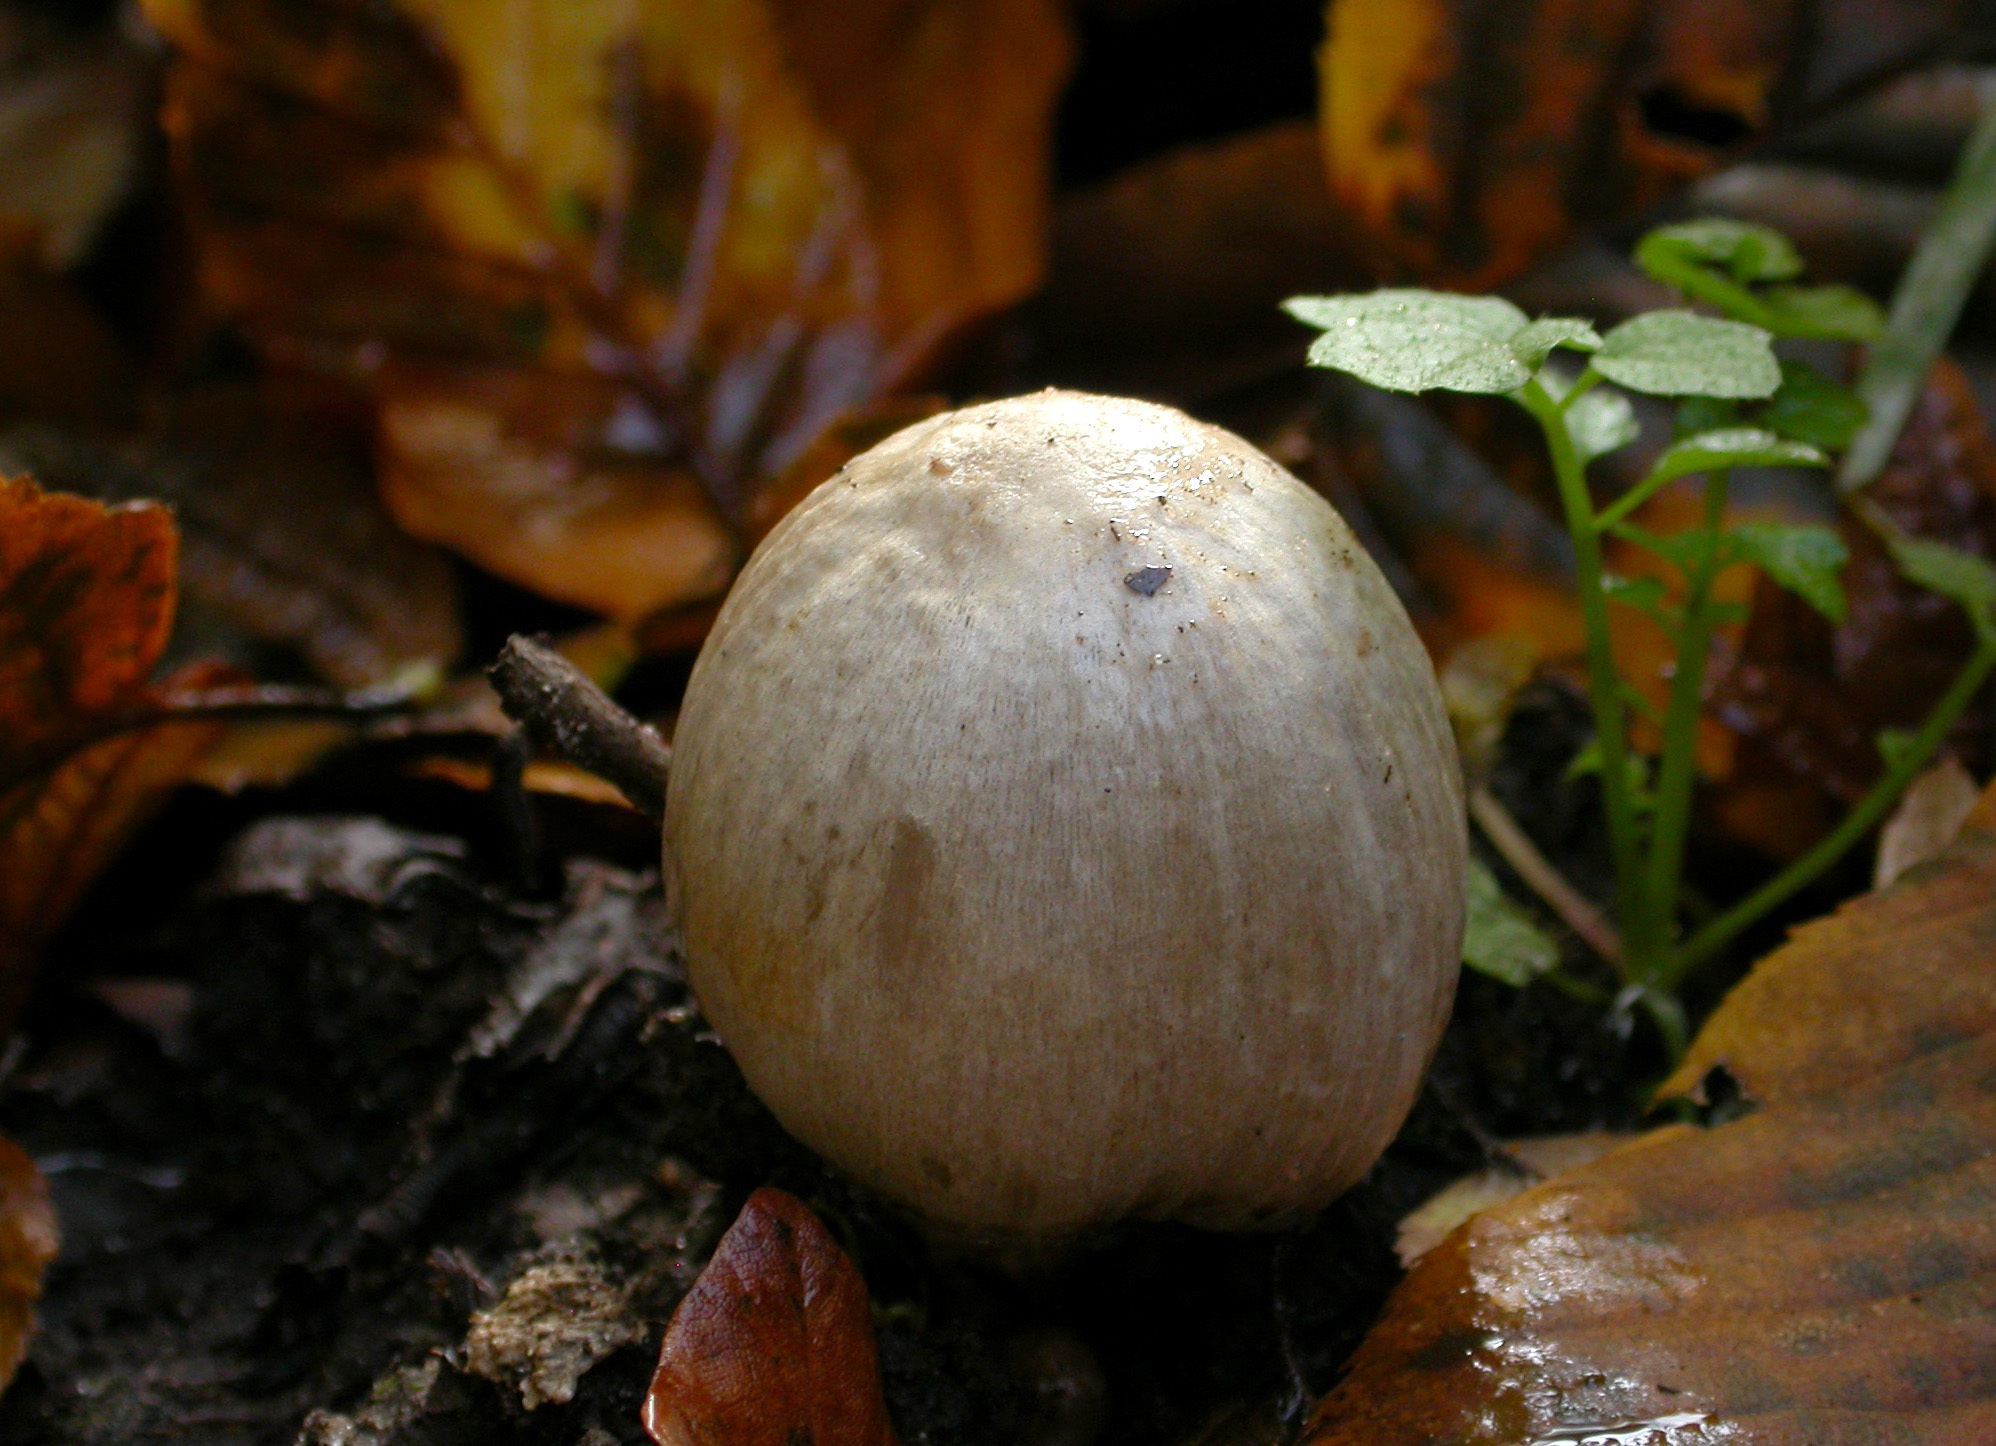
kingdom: Fungi
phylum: Basidiomycota
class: Agaricomycetes
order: Agaricales
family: Psathyrellaceae
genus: Coprinopsis
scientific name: Coprinopsis atramentaria
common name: Common ink-cap
